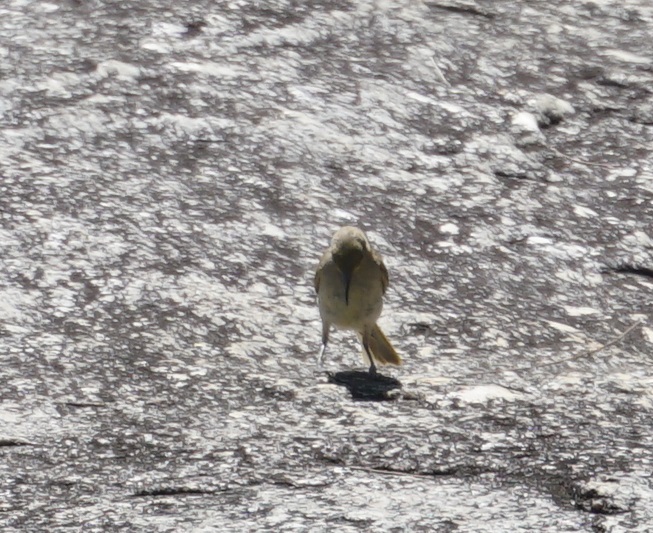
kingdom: Animalia
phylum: Chordata
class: Aves
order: Passeriformes
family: Meliphagidae
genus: Lichmera
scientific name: Lichmera indistincta
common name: Brown honeyeater
